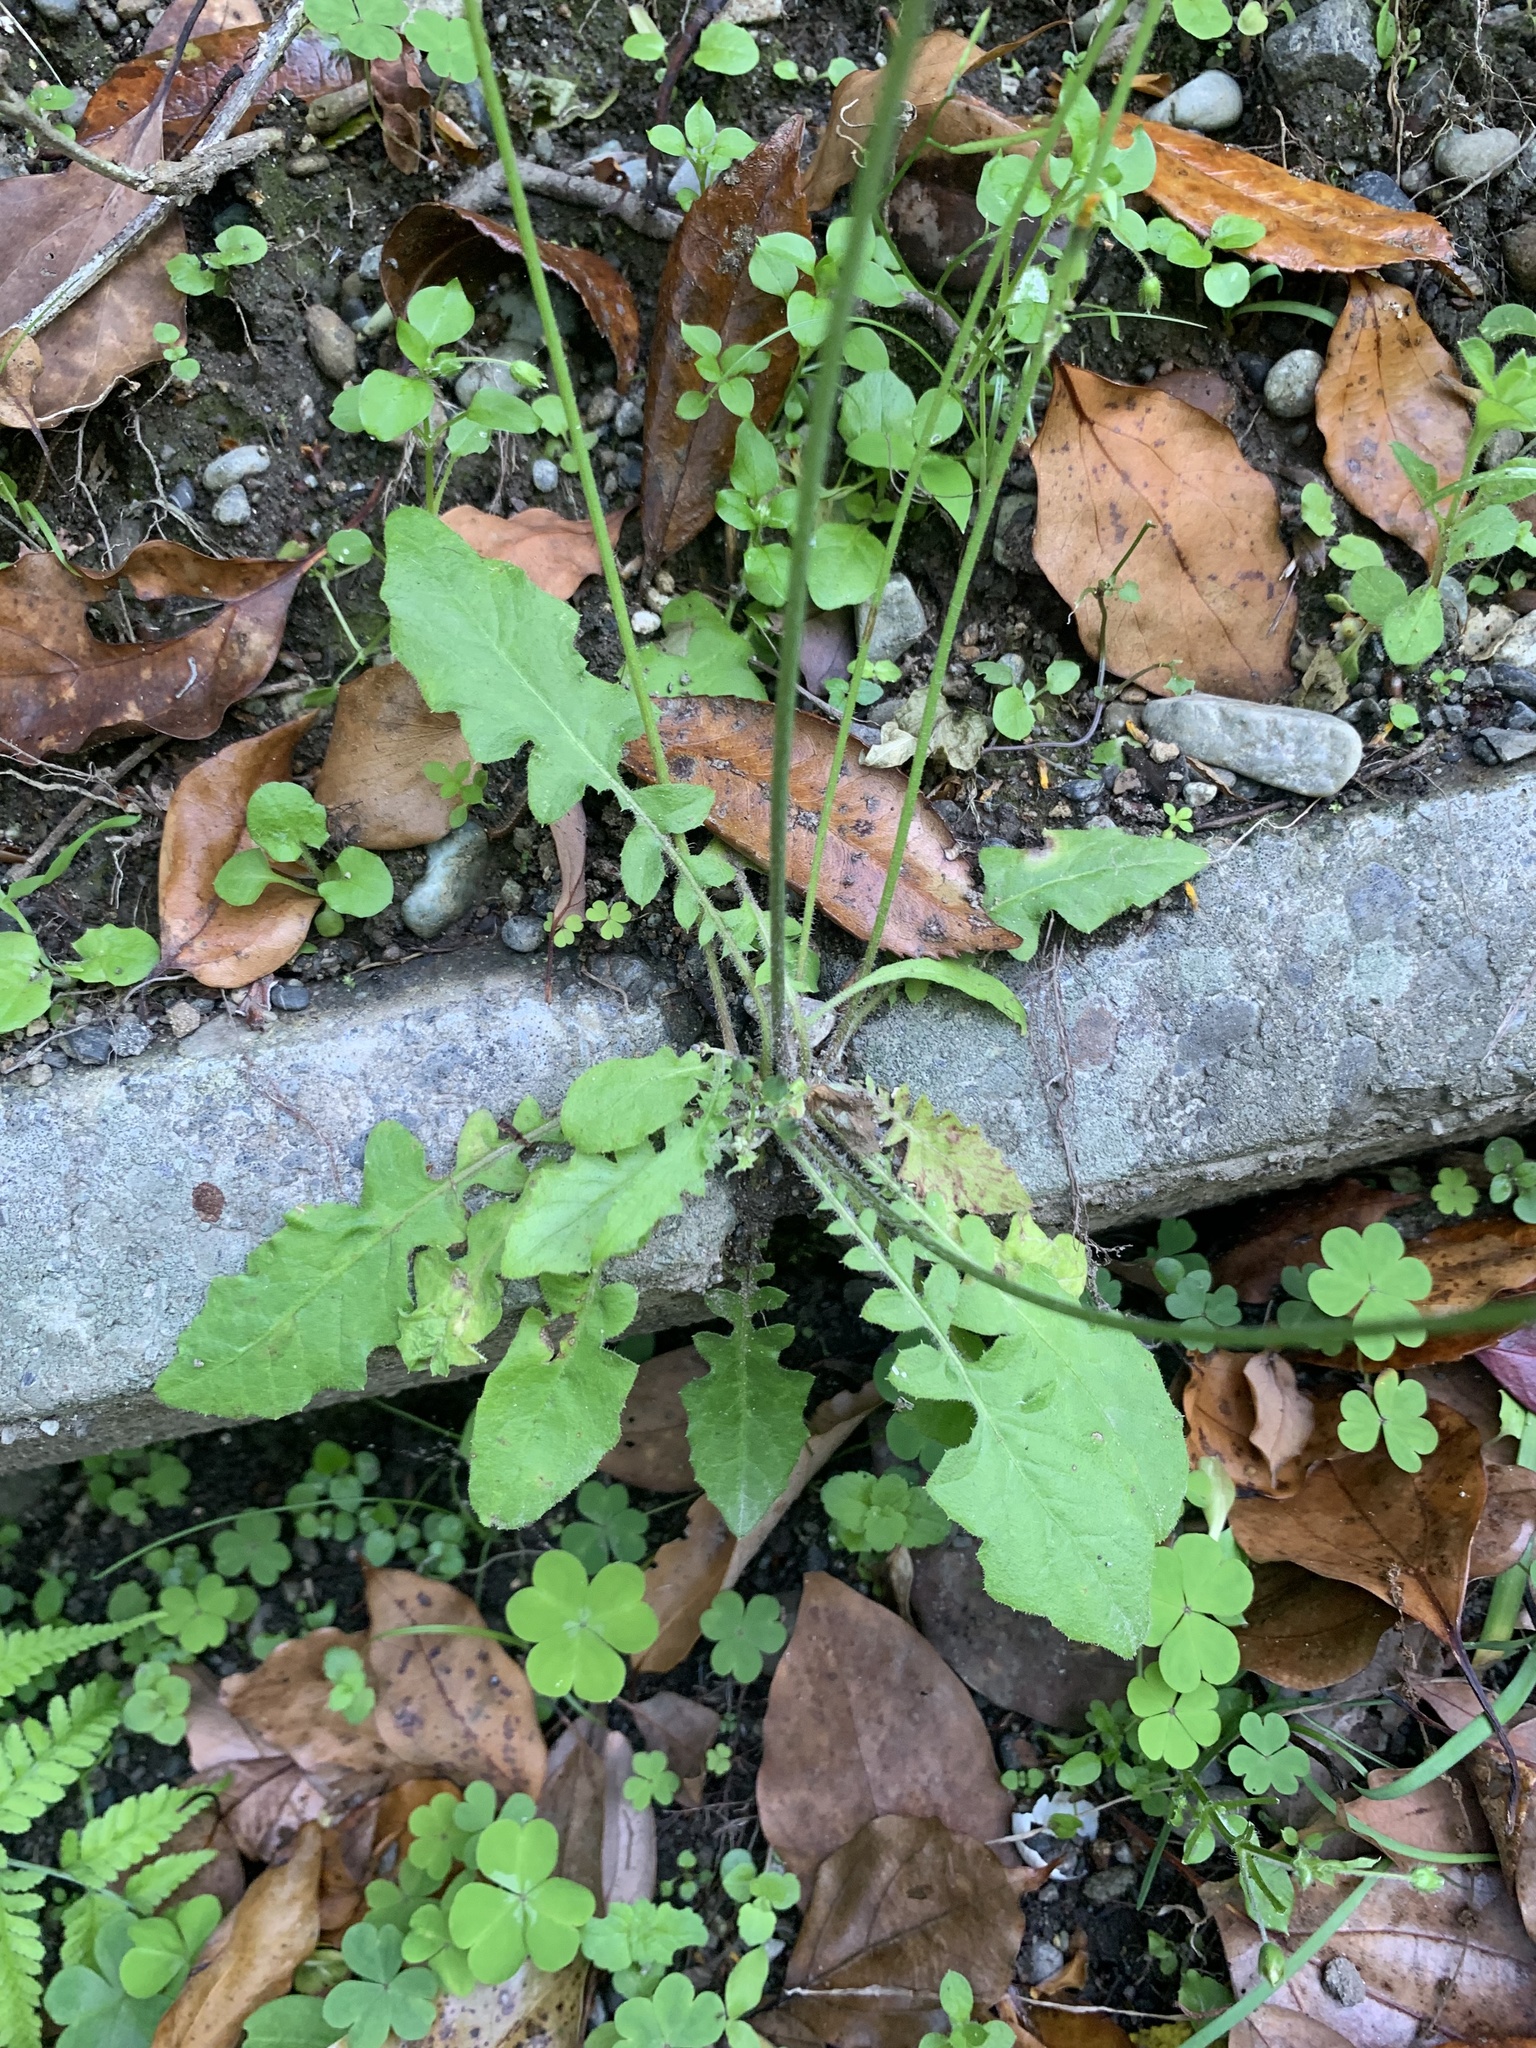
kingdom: Plantae
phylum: Tracheophyta
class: Magnoliopsida
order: Asterales
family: Asteraceae
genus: Youngia
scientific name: Youngia japonica
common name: Oriental false hawksbeard
